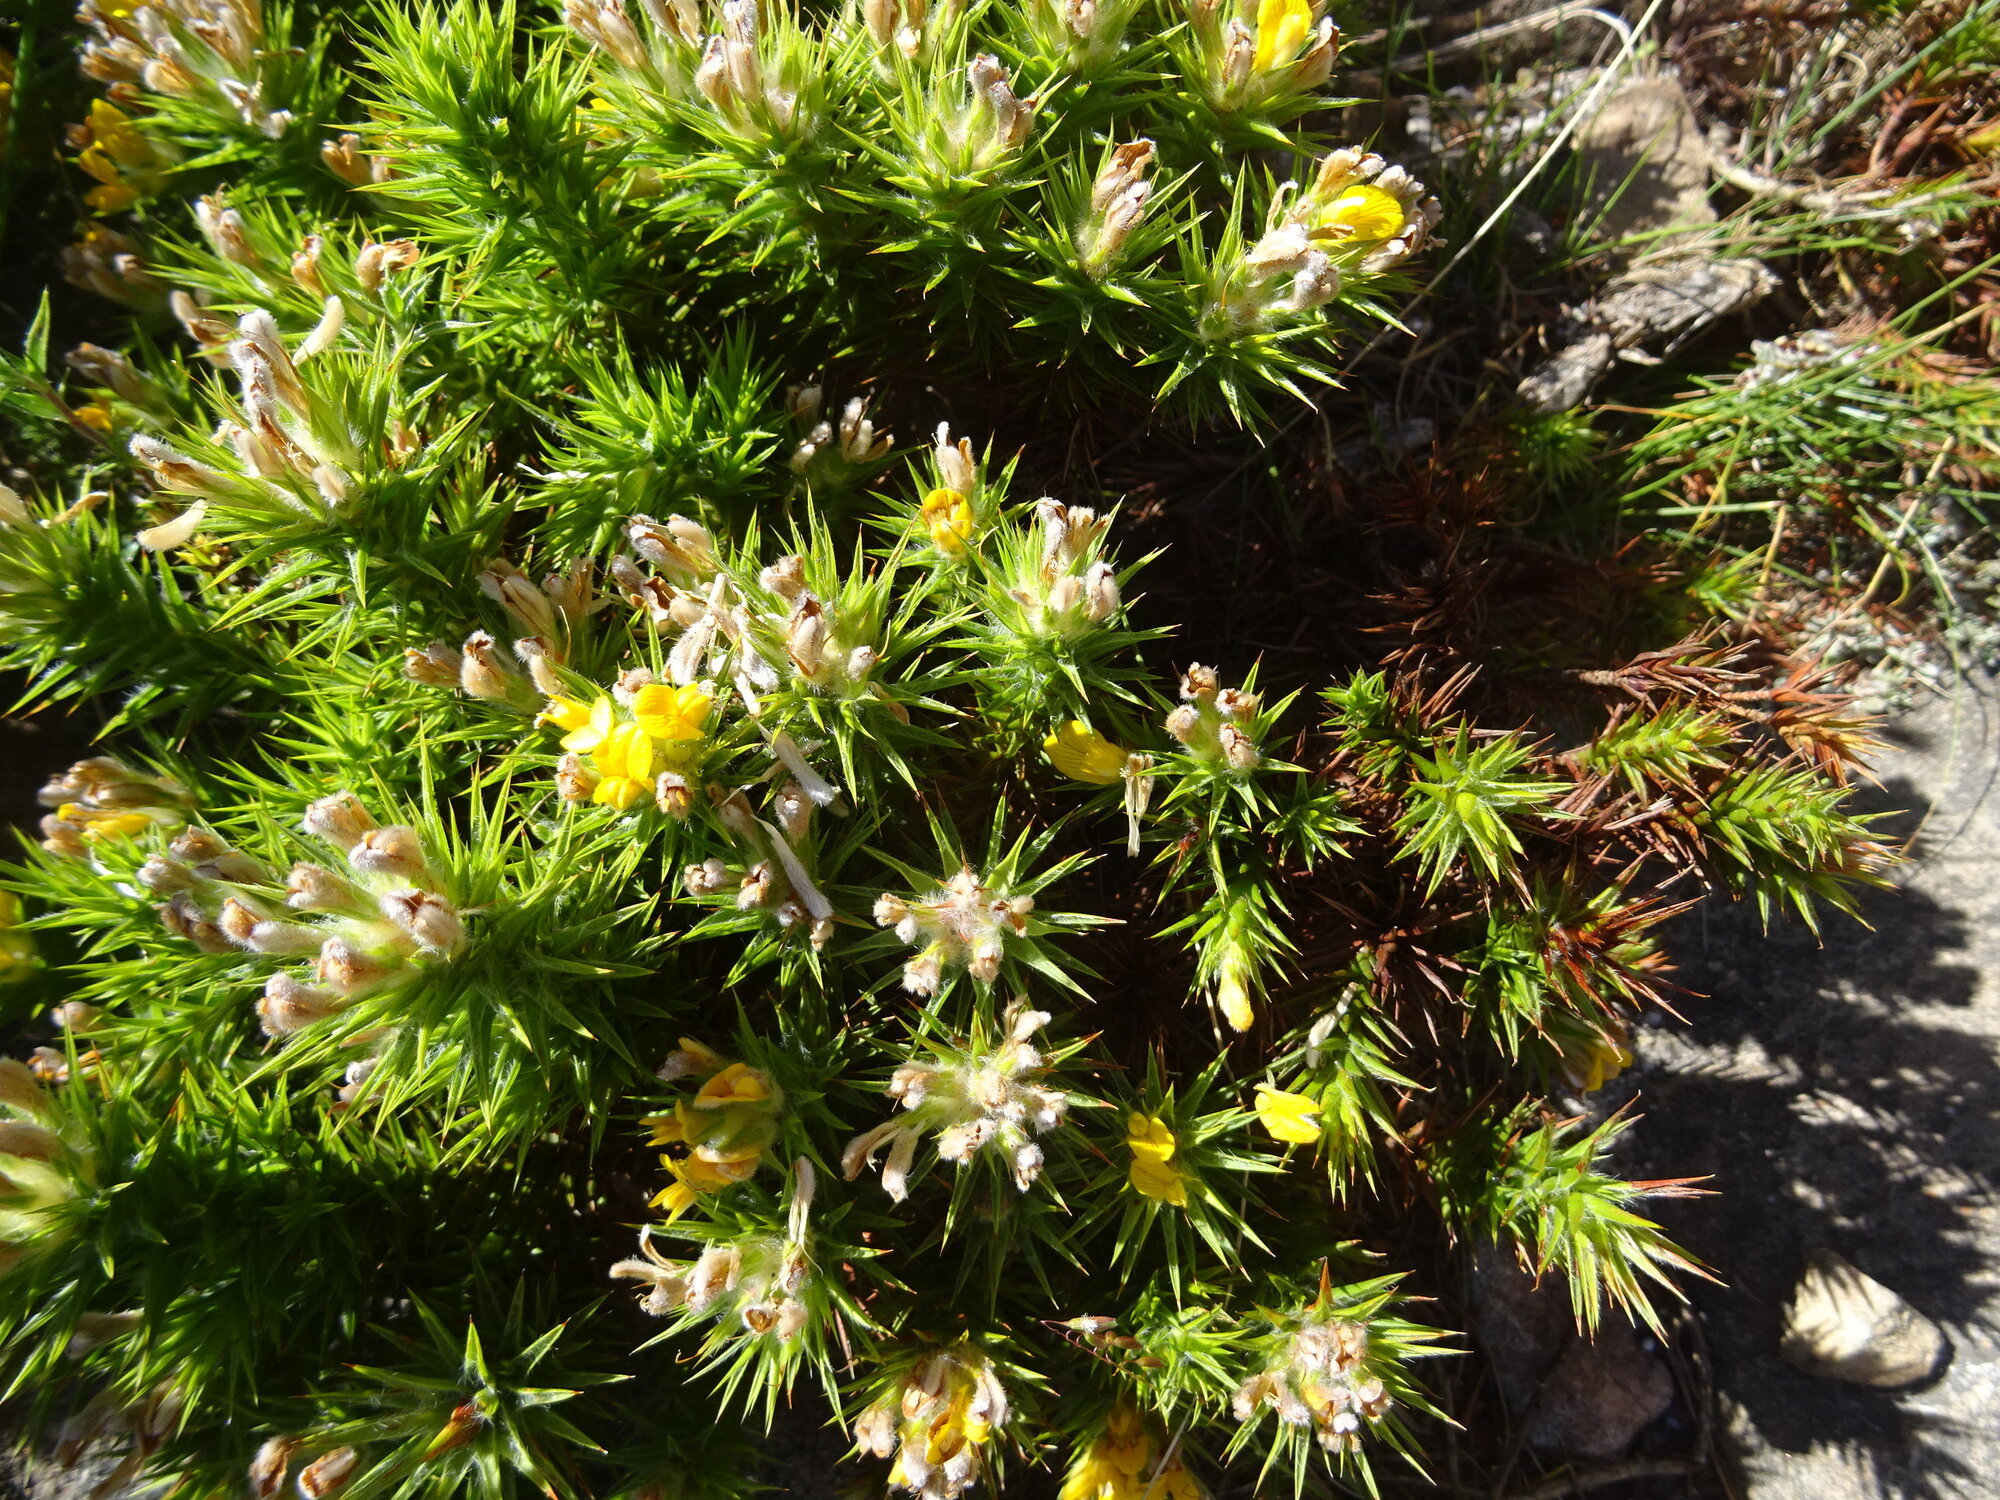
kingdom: Plantae
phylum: Tracheophyta
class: Magnoliopsida
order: Fabales
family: Fabaceae
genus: Aspalathus
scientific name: Aspalathus chenopoda
